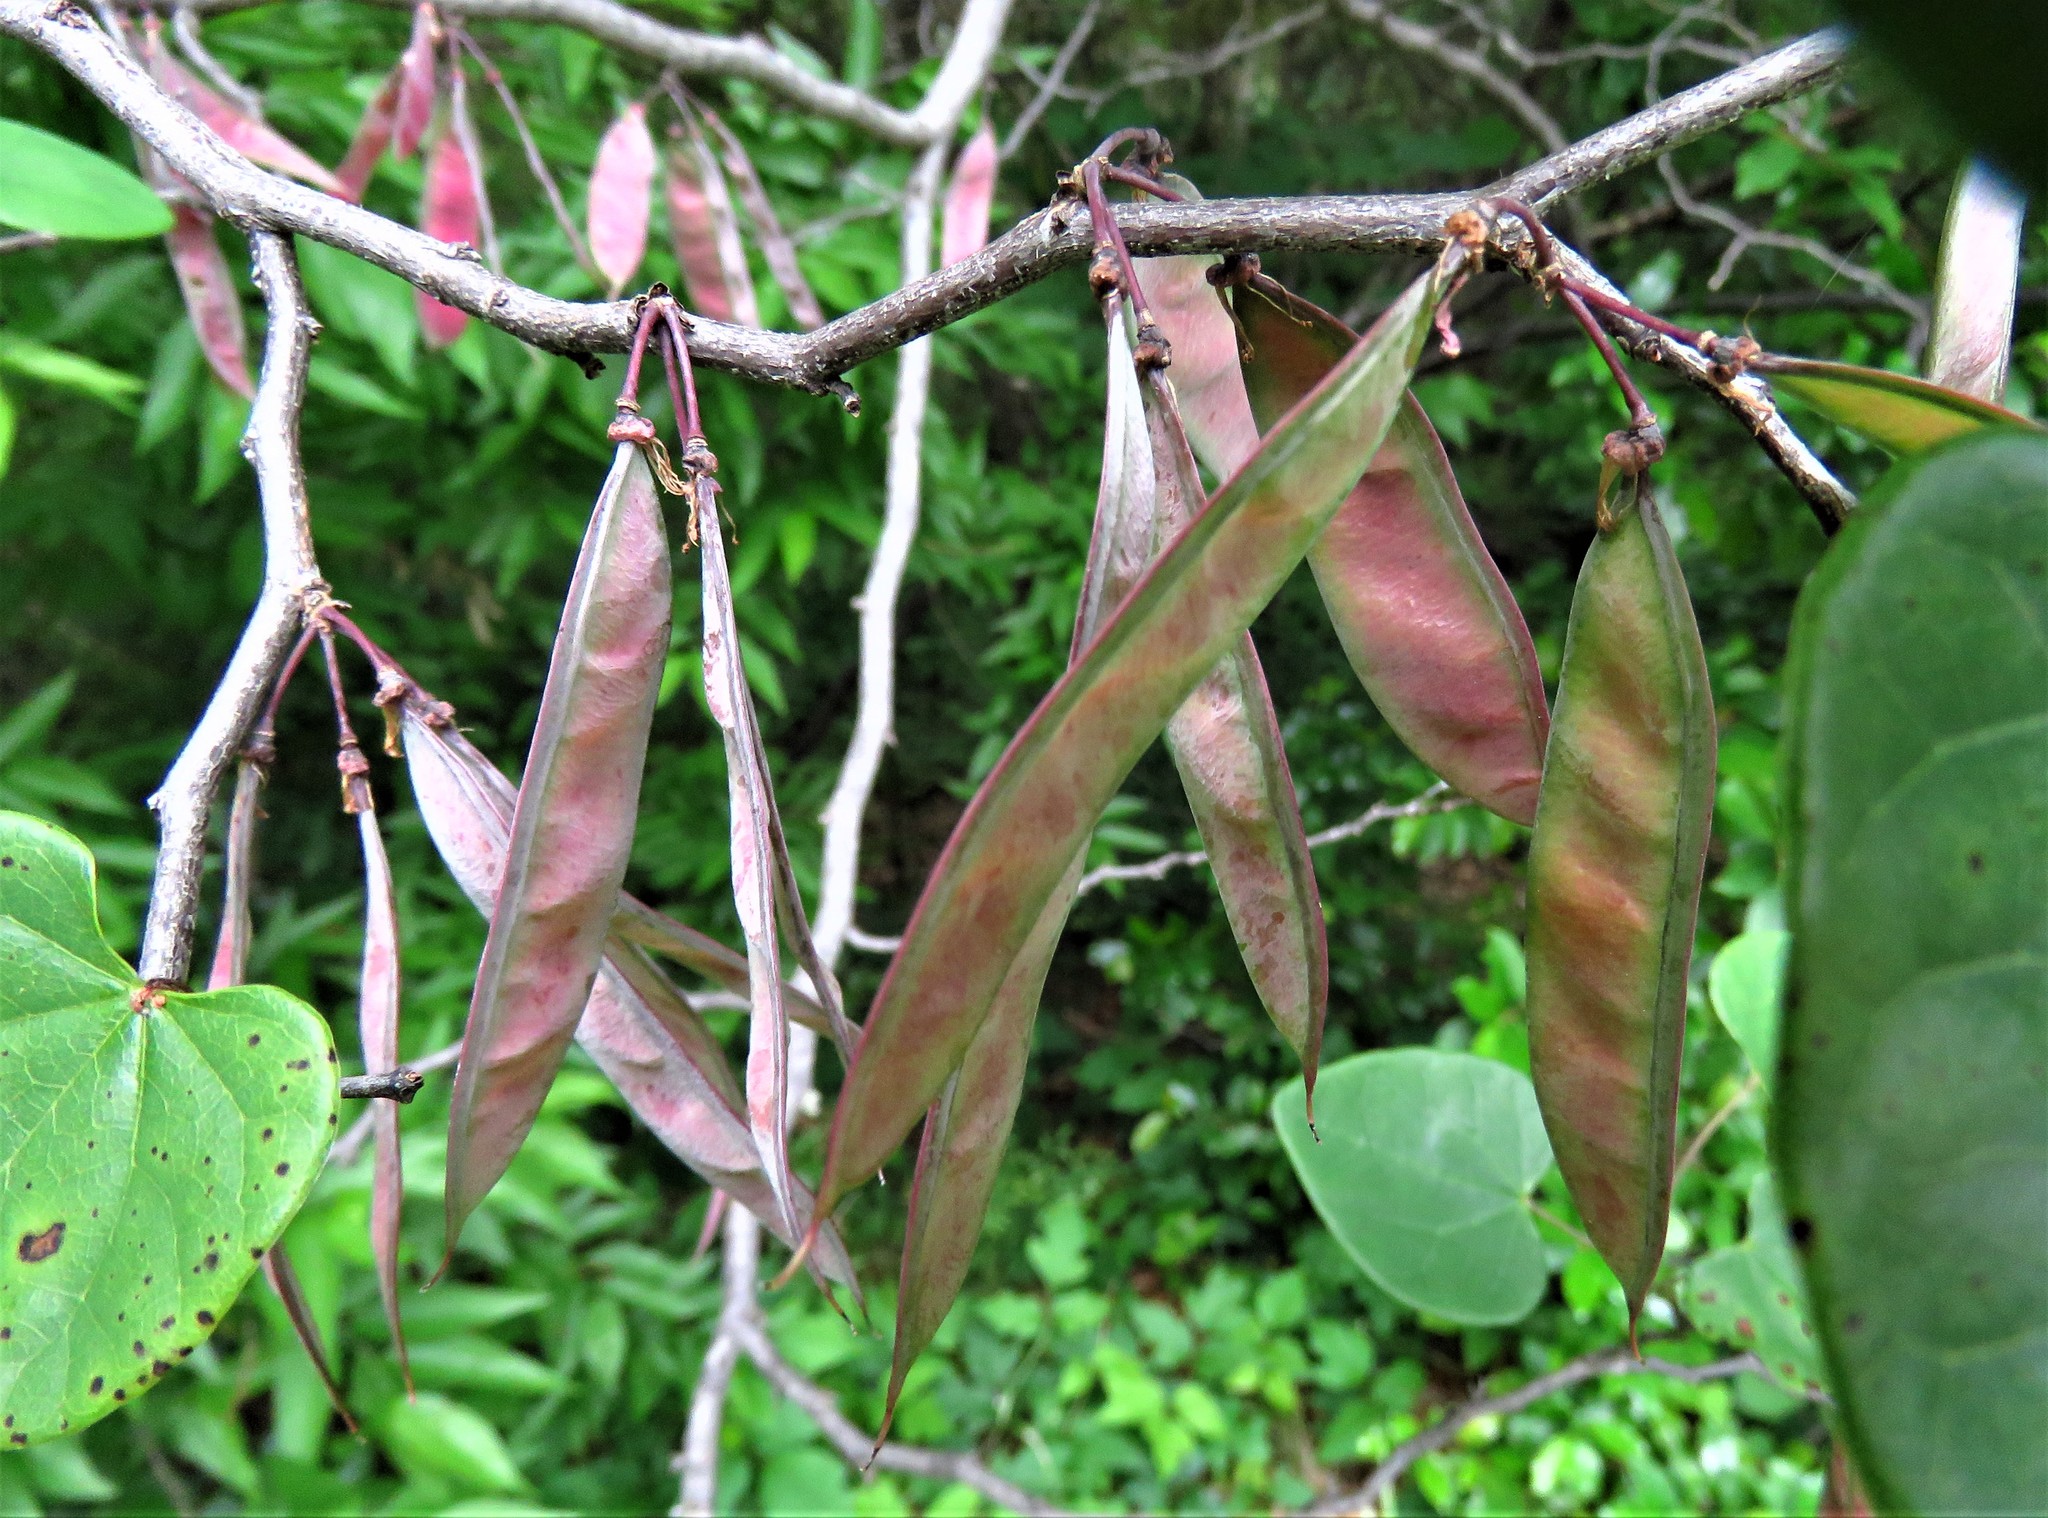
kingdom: Plantae
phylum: Tracheophyta
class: Magnoliopsida
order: Fabales
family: Fabaceae
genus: Cercis
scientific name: Cercis canadensis
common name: Eastern redbud
